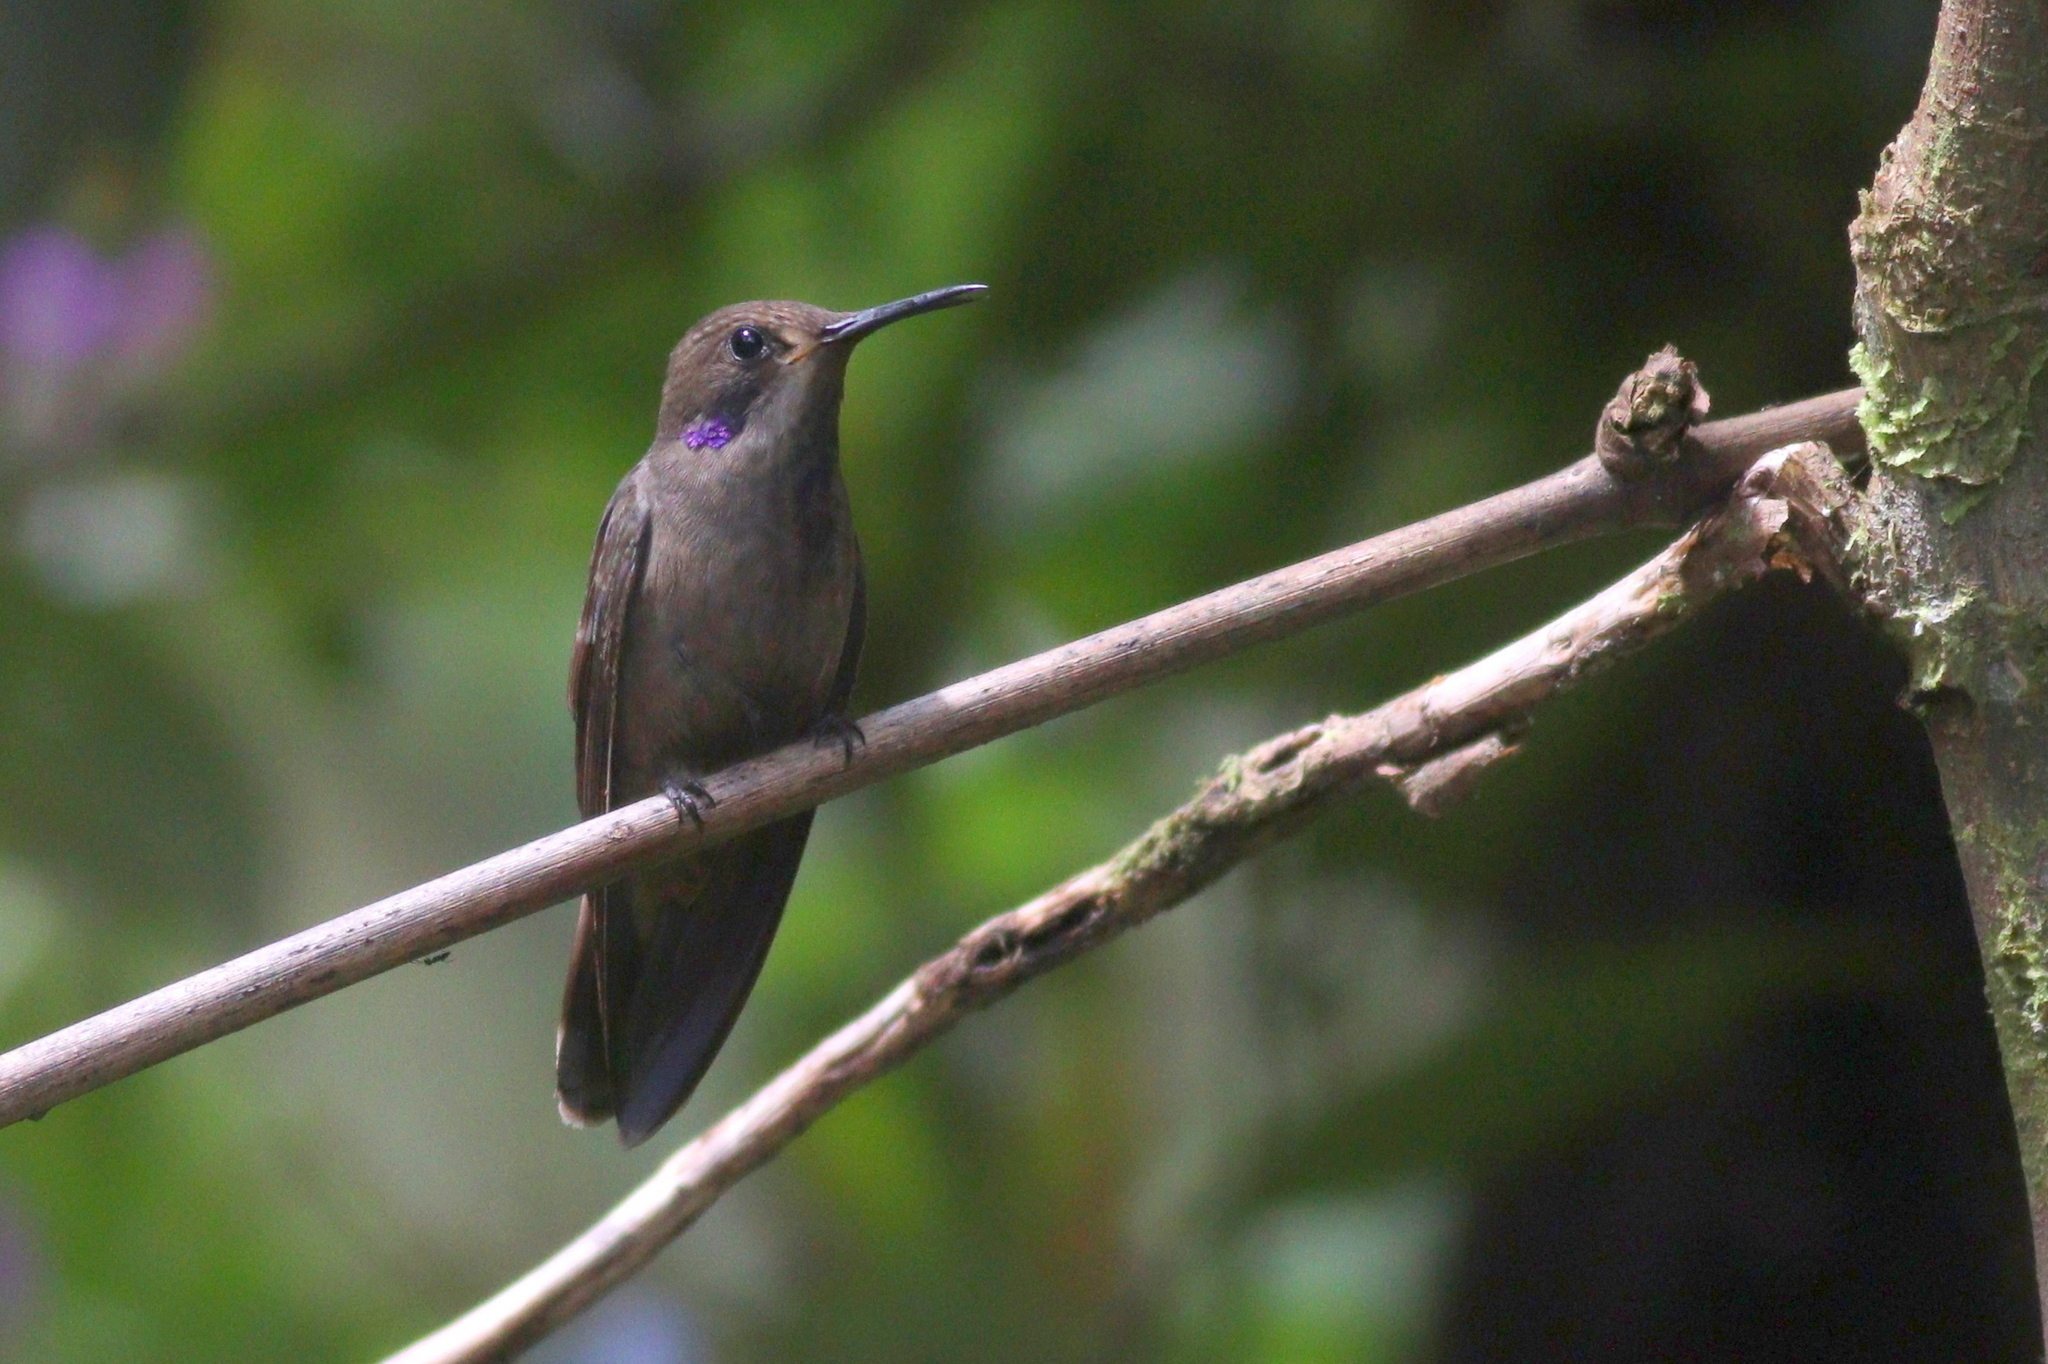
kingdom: Animalia
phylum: Chordata
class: Aves
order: Apodiformes
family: Trochilidae
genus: Colibri
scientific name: Colibri delphinae
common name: Brown violetear
